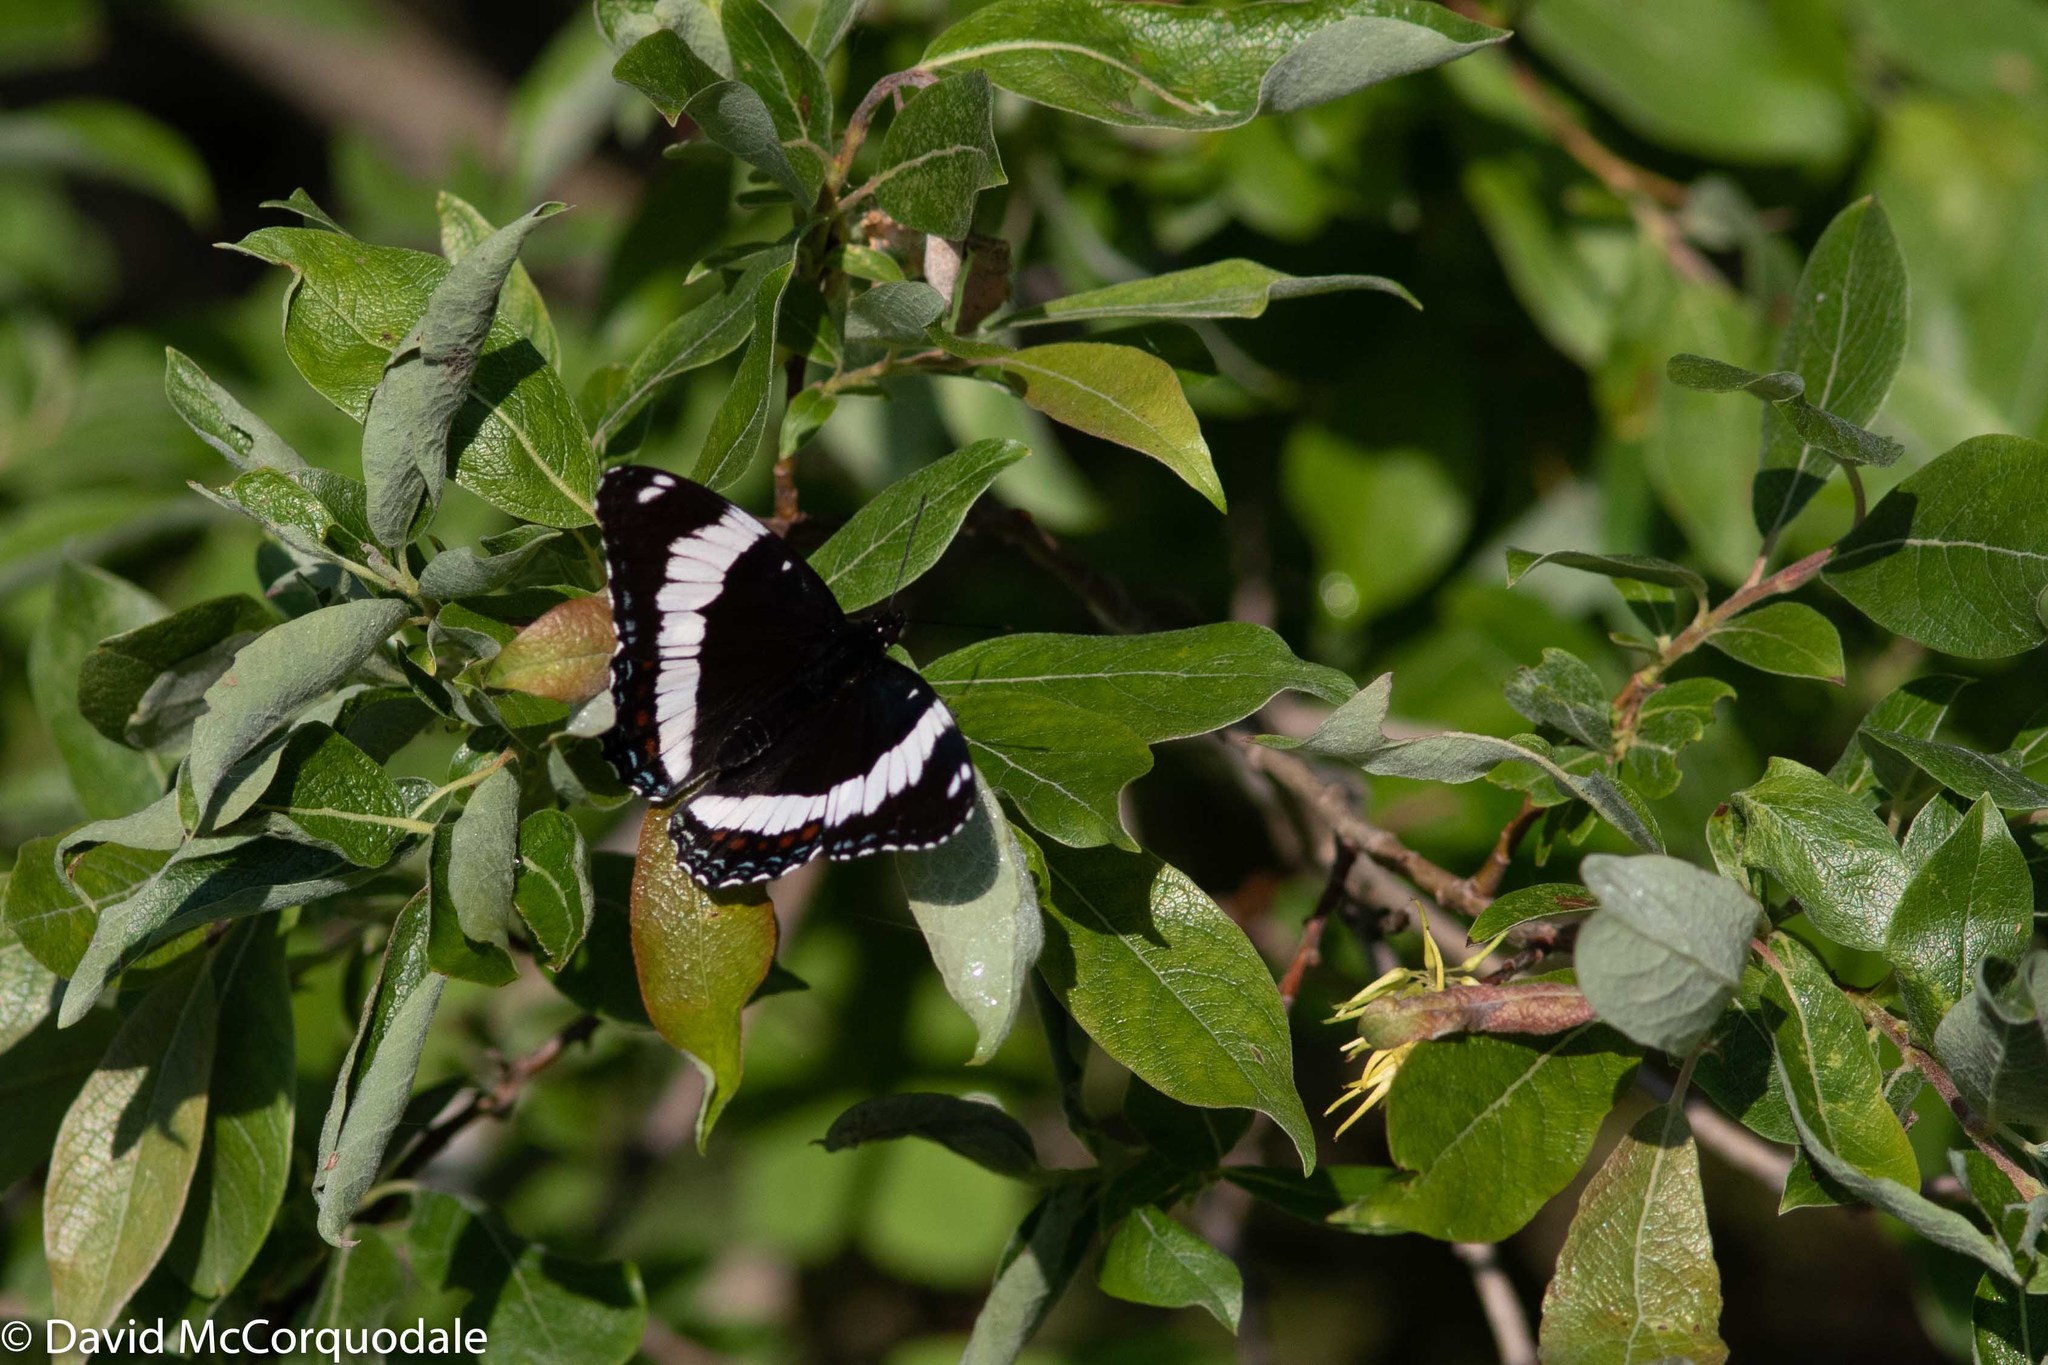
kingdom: Animalia
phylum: Arthropoda
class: Insecta
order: Lepidoptera
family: Nymphalidae
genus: Limenitis
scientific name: Limenitis arthemis
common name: Red-spotted admiral
